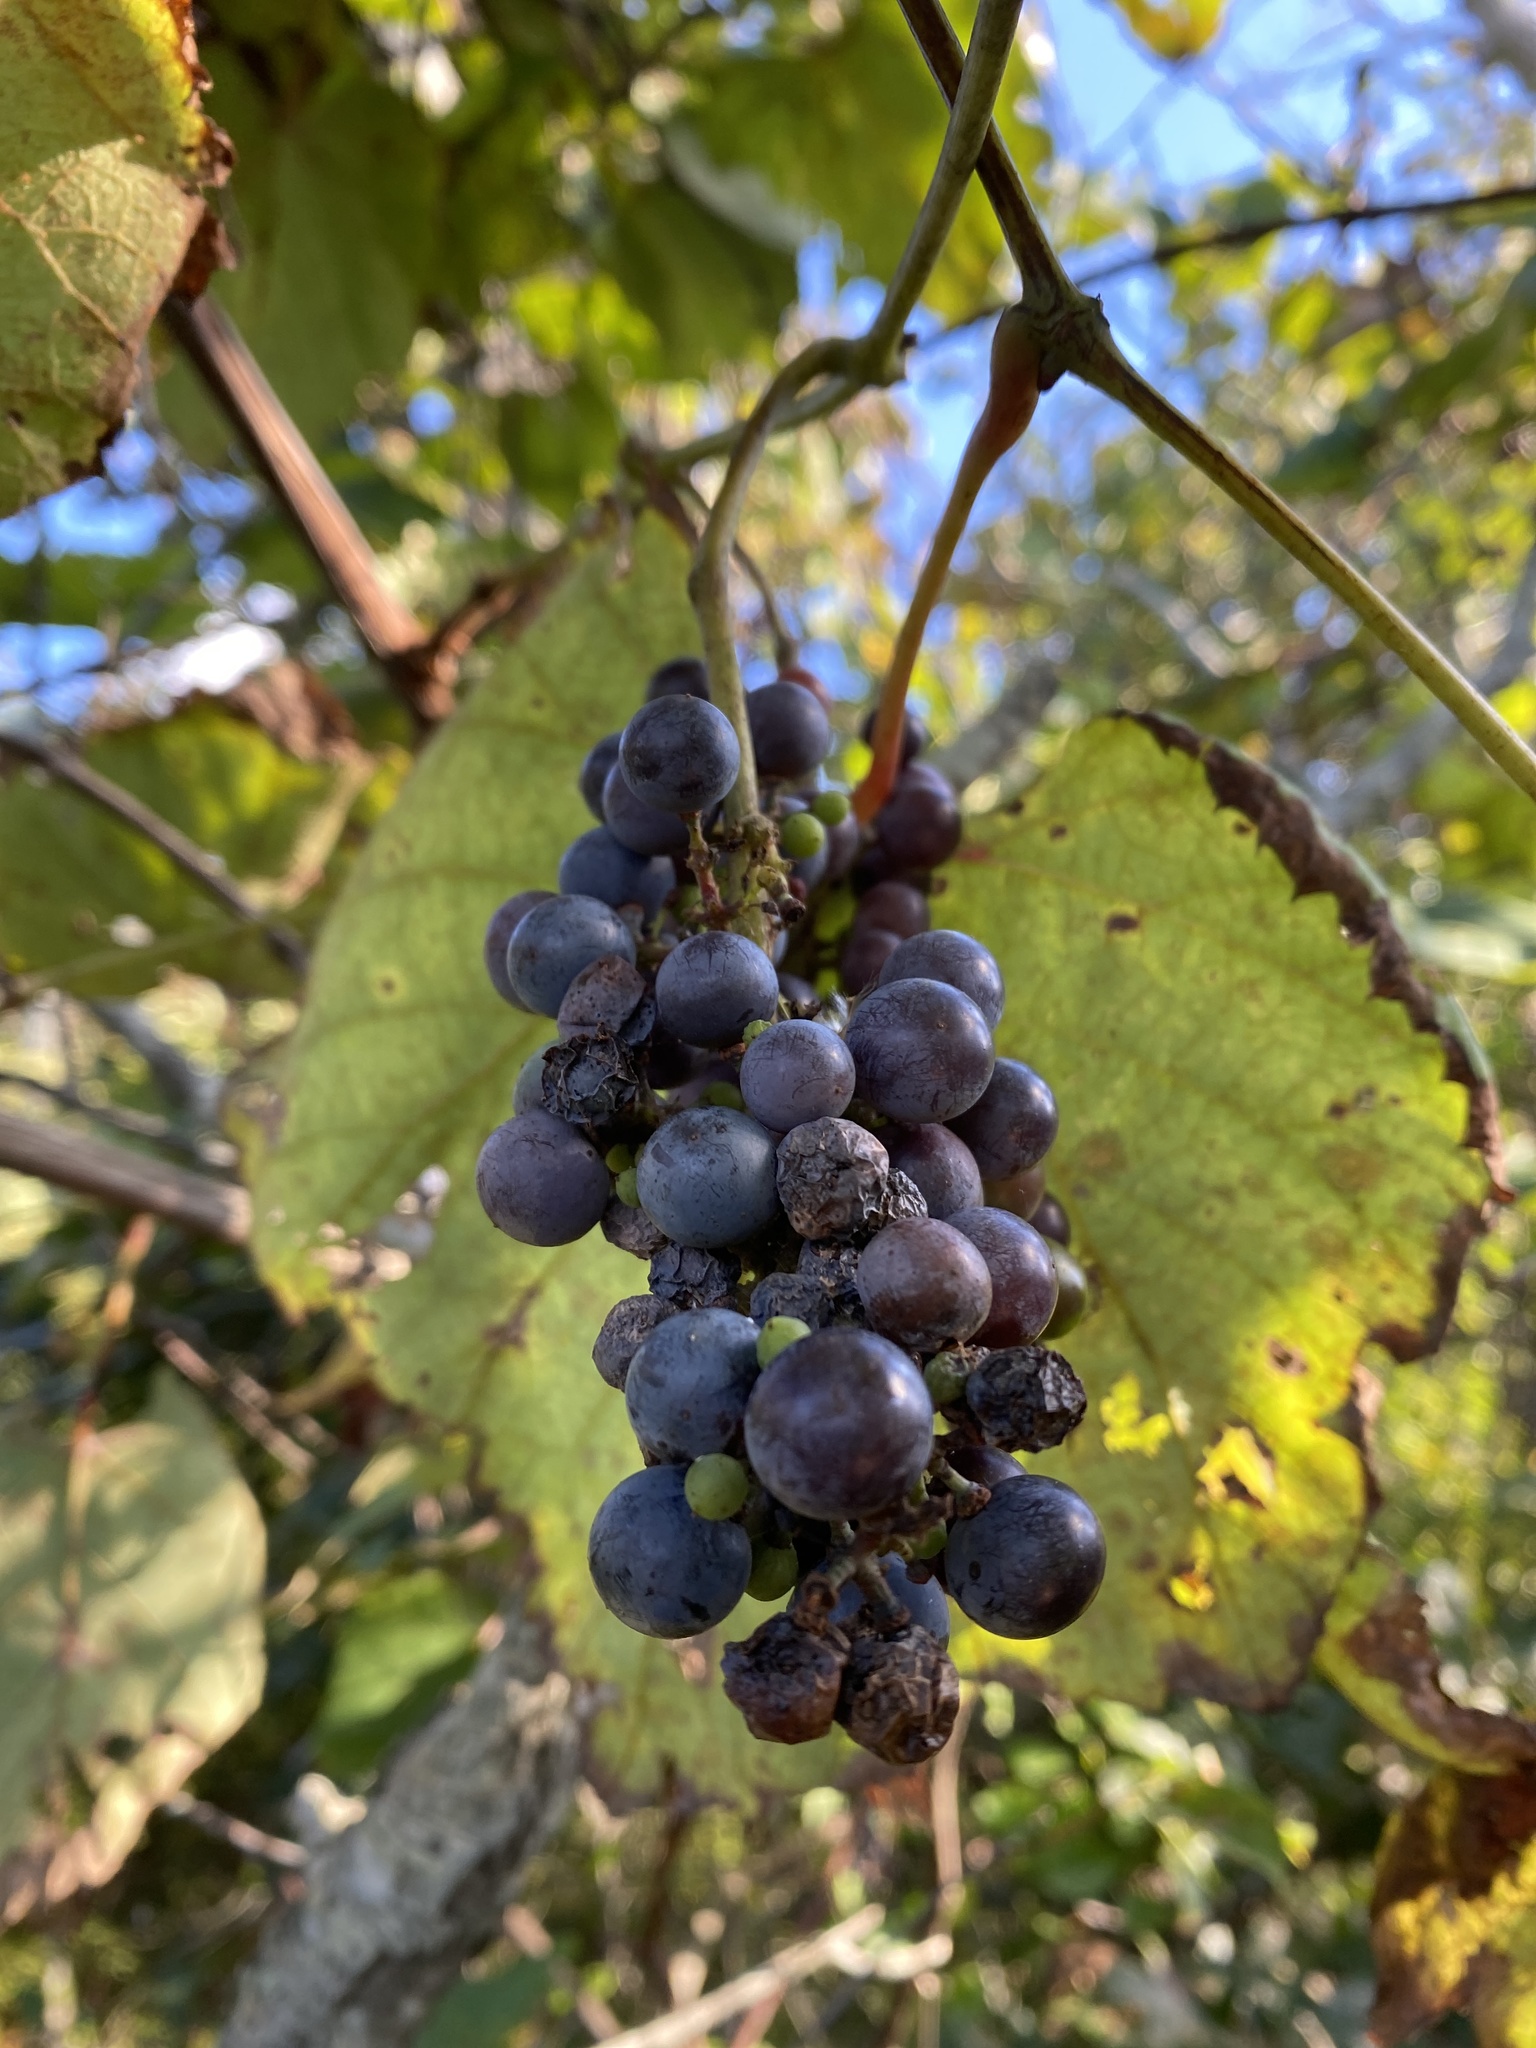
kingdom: Plantae
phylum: Tracheophyta
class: Magnoliopsida
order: Vitales
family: Vitaceae
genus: Vitis
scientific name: Vitis riparia
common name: Frost grape
